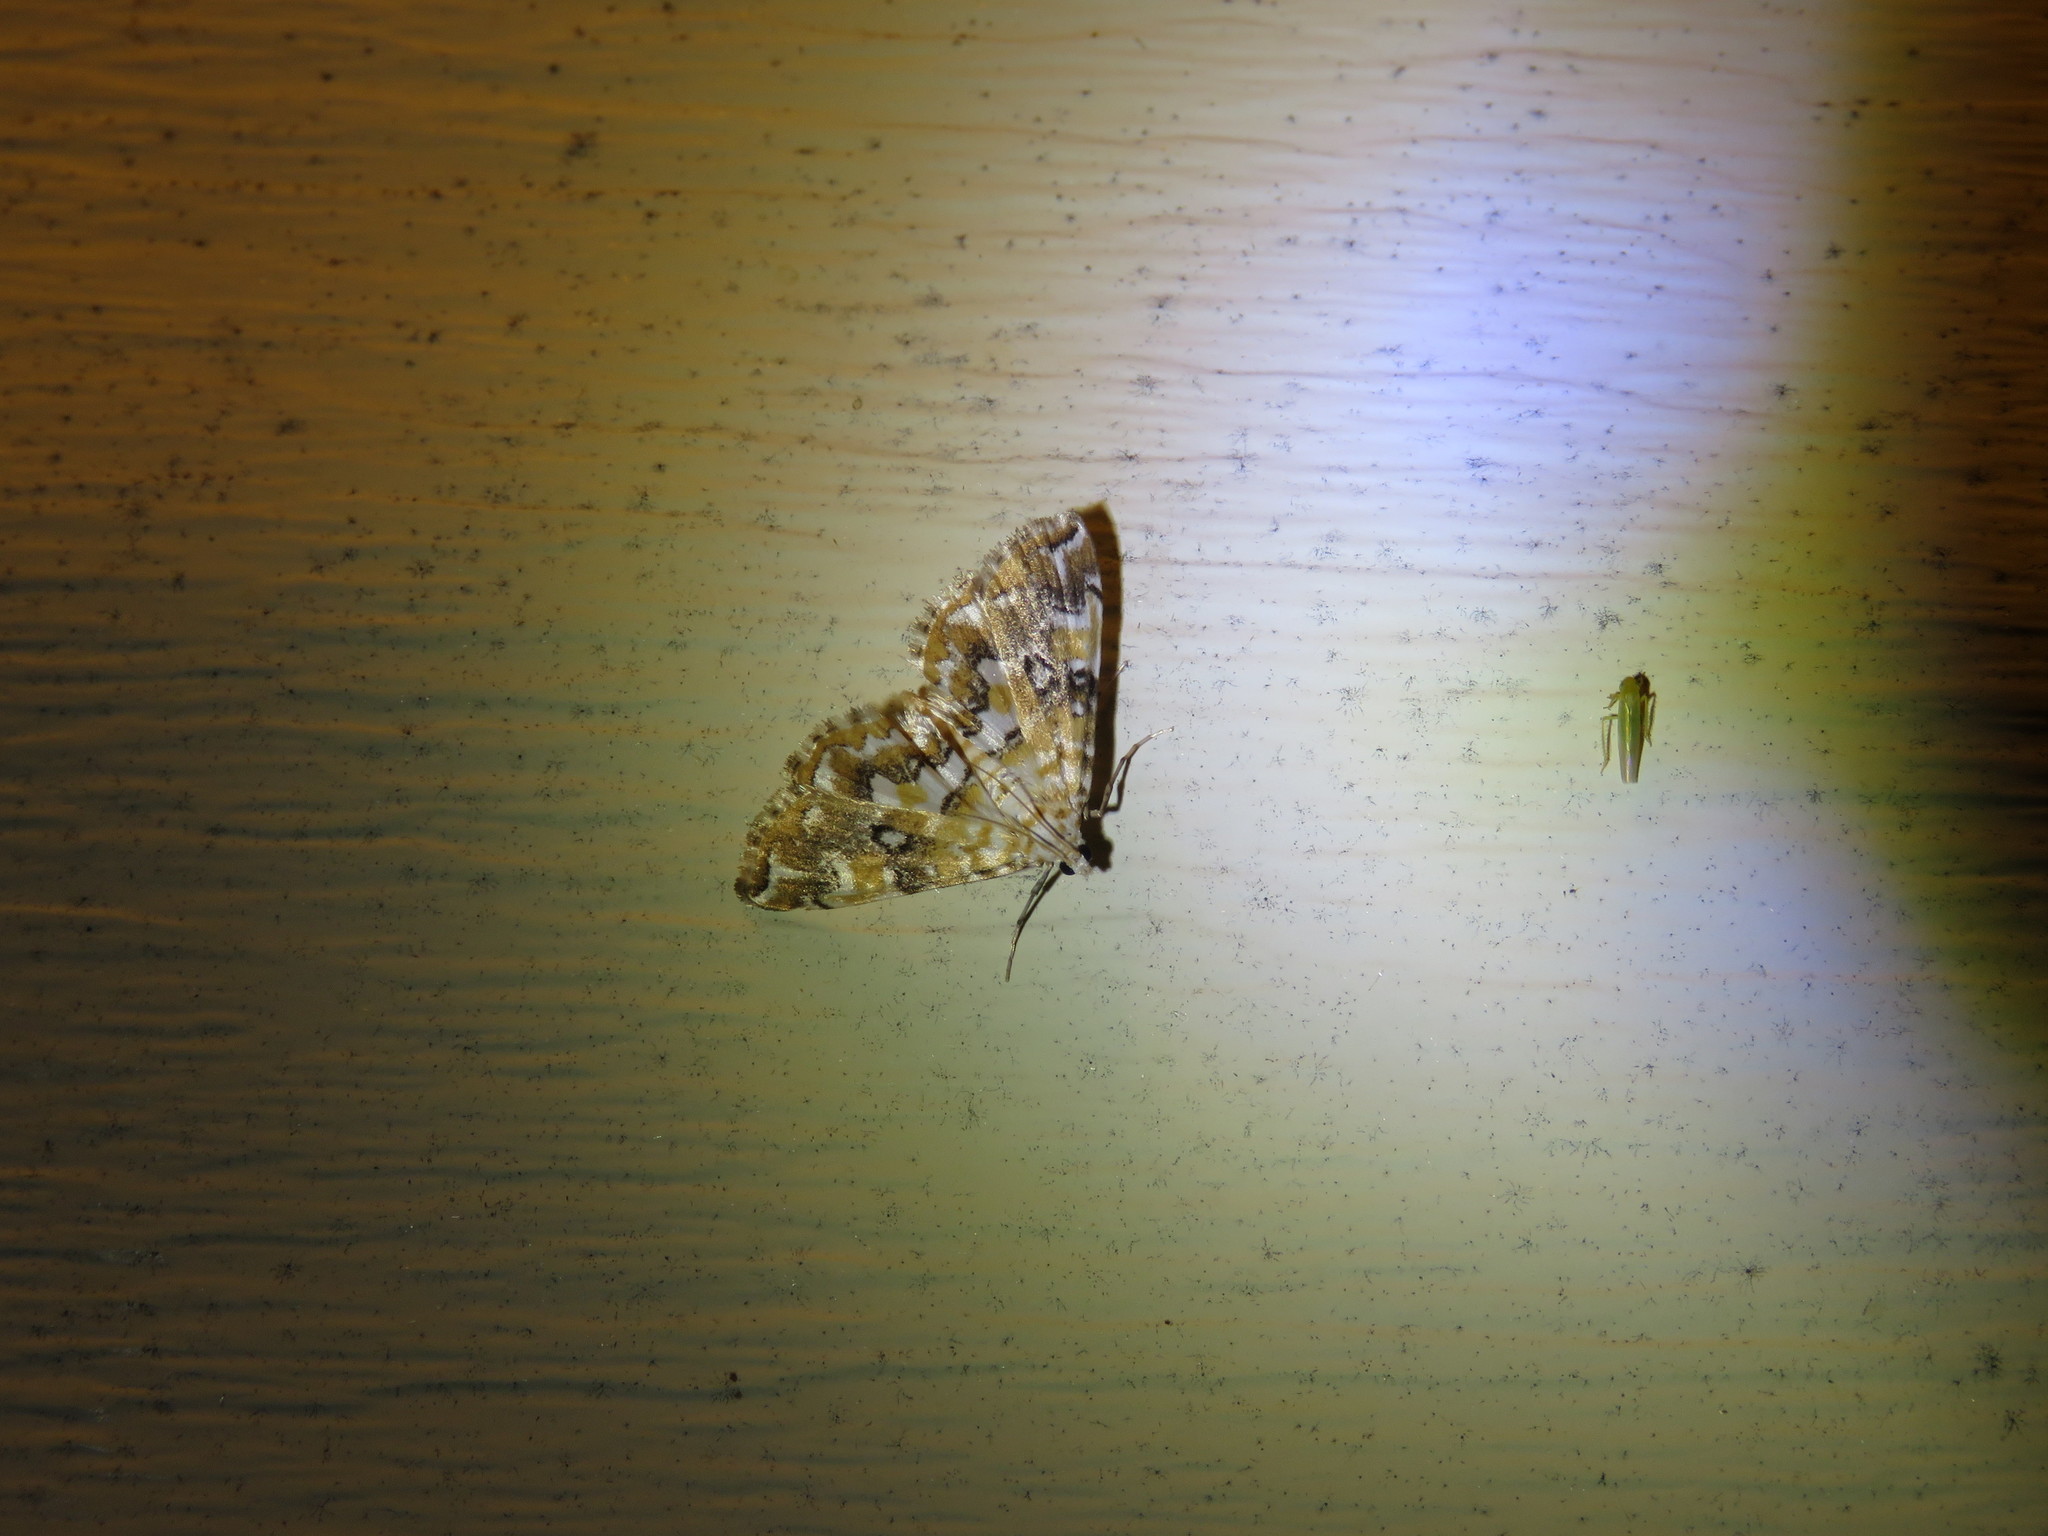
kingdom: Animalia
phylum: Arthropoda
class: Insecta
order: Lepidoptera
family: Crambidae
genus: Elophila
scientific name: Elophila icciusalis
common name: Pondside pyralid moth
